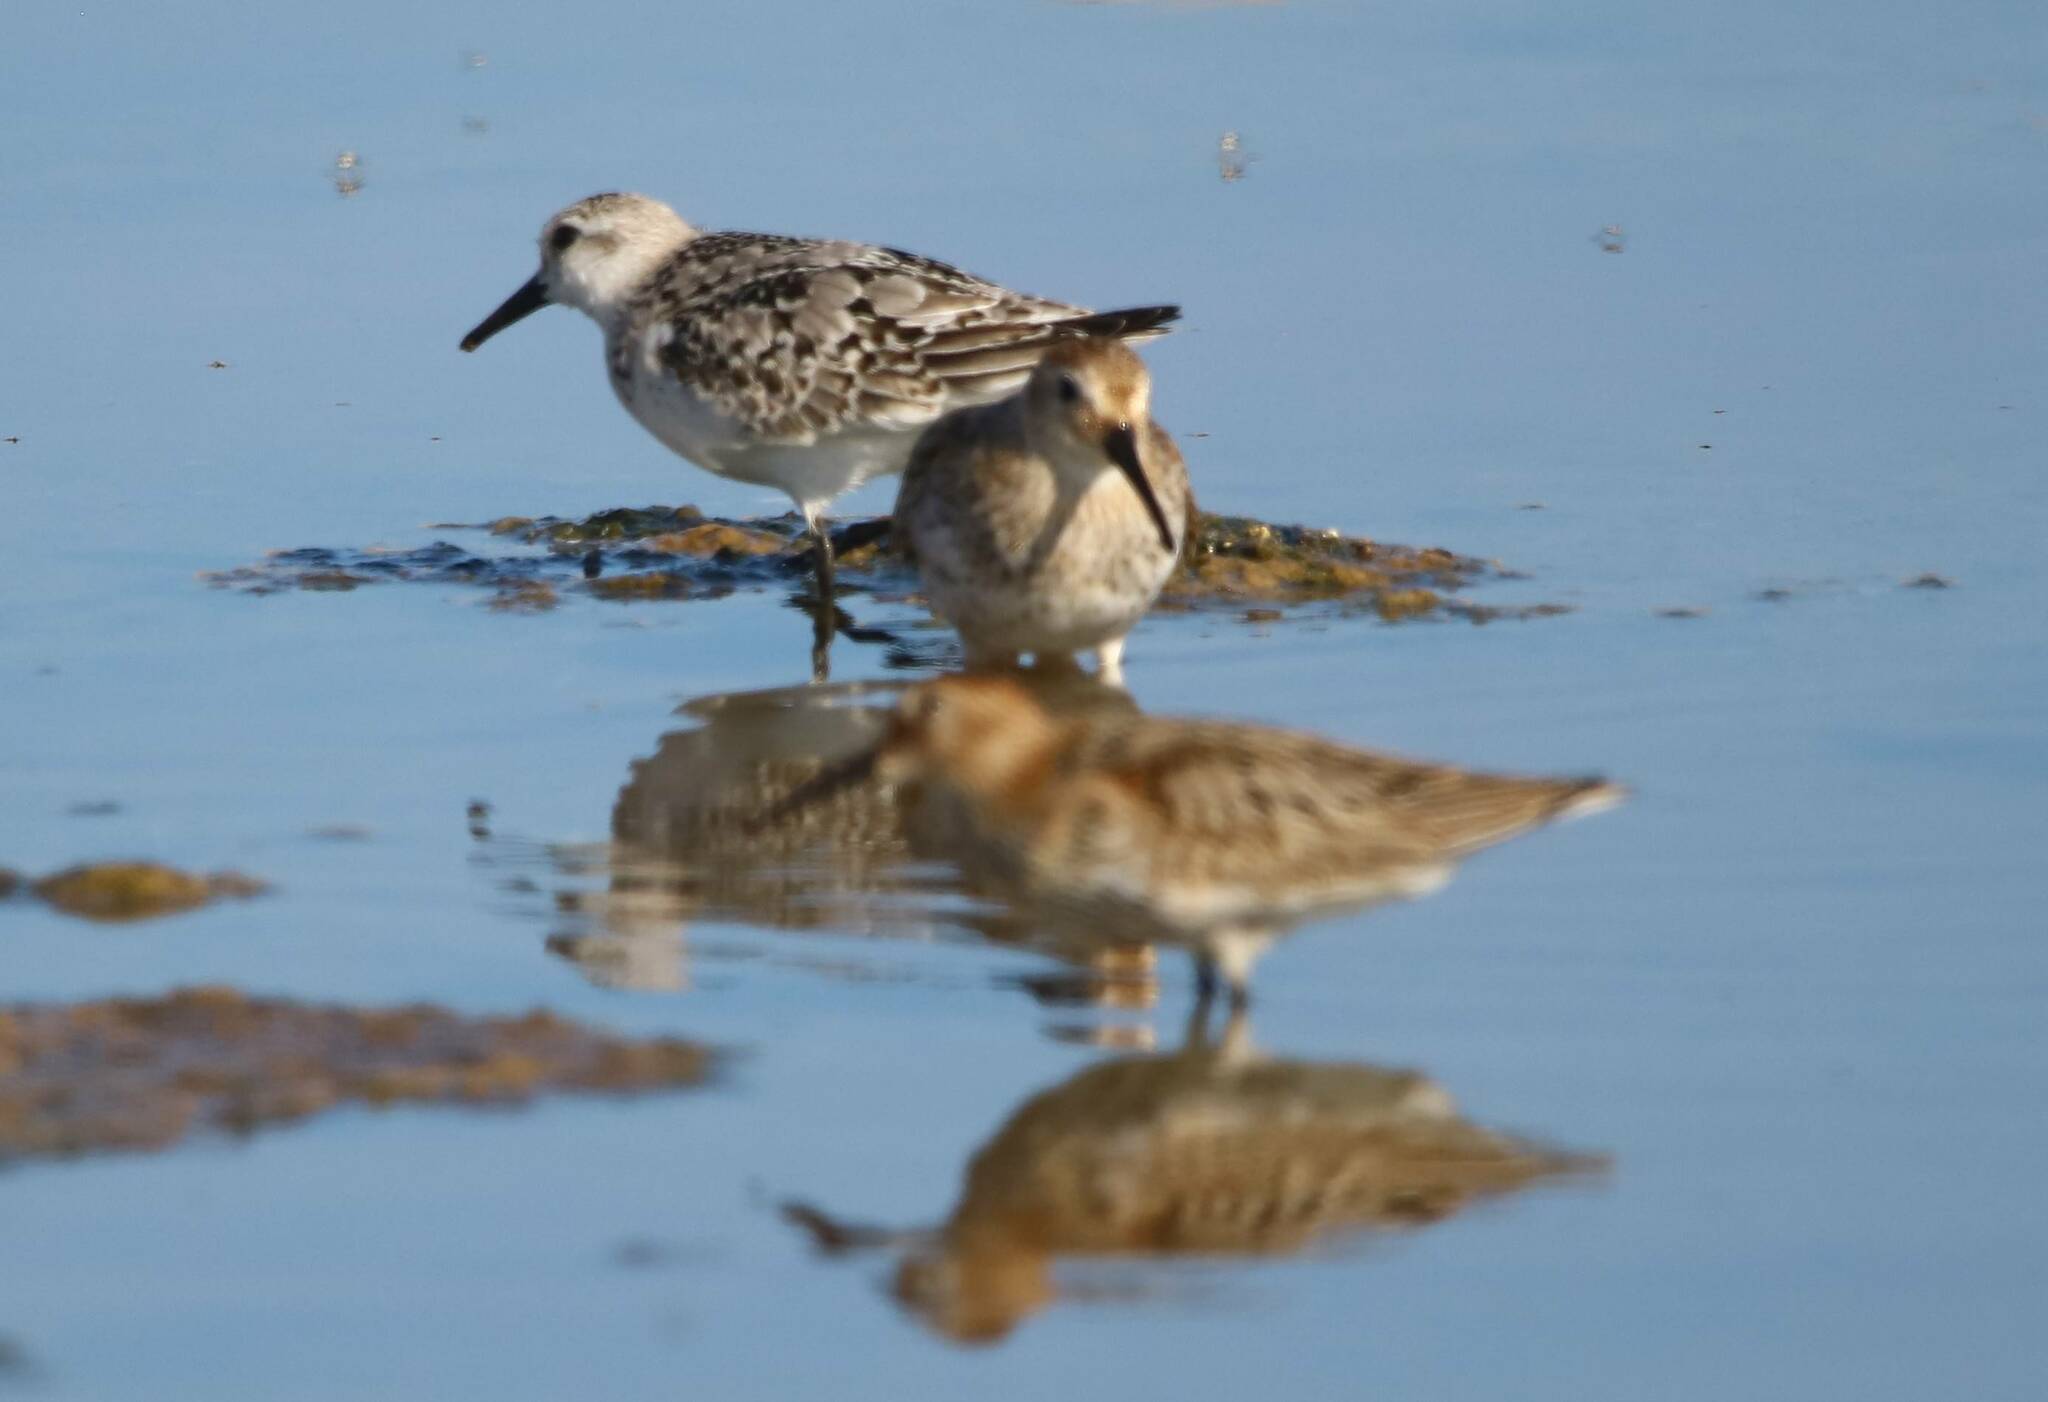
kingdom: Animalia
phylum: Chordata
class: Aves
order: Charadriiformes
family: Scolopacidae
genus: Calidris
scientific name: Calidris alba
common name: Sanderling
